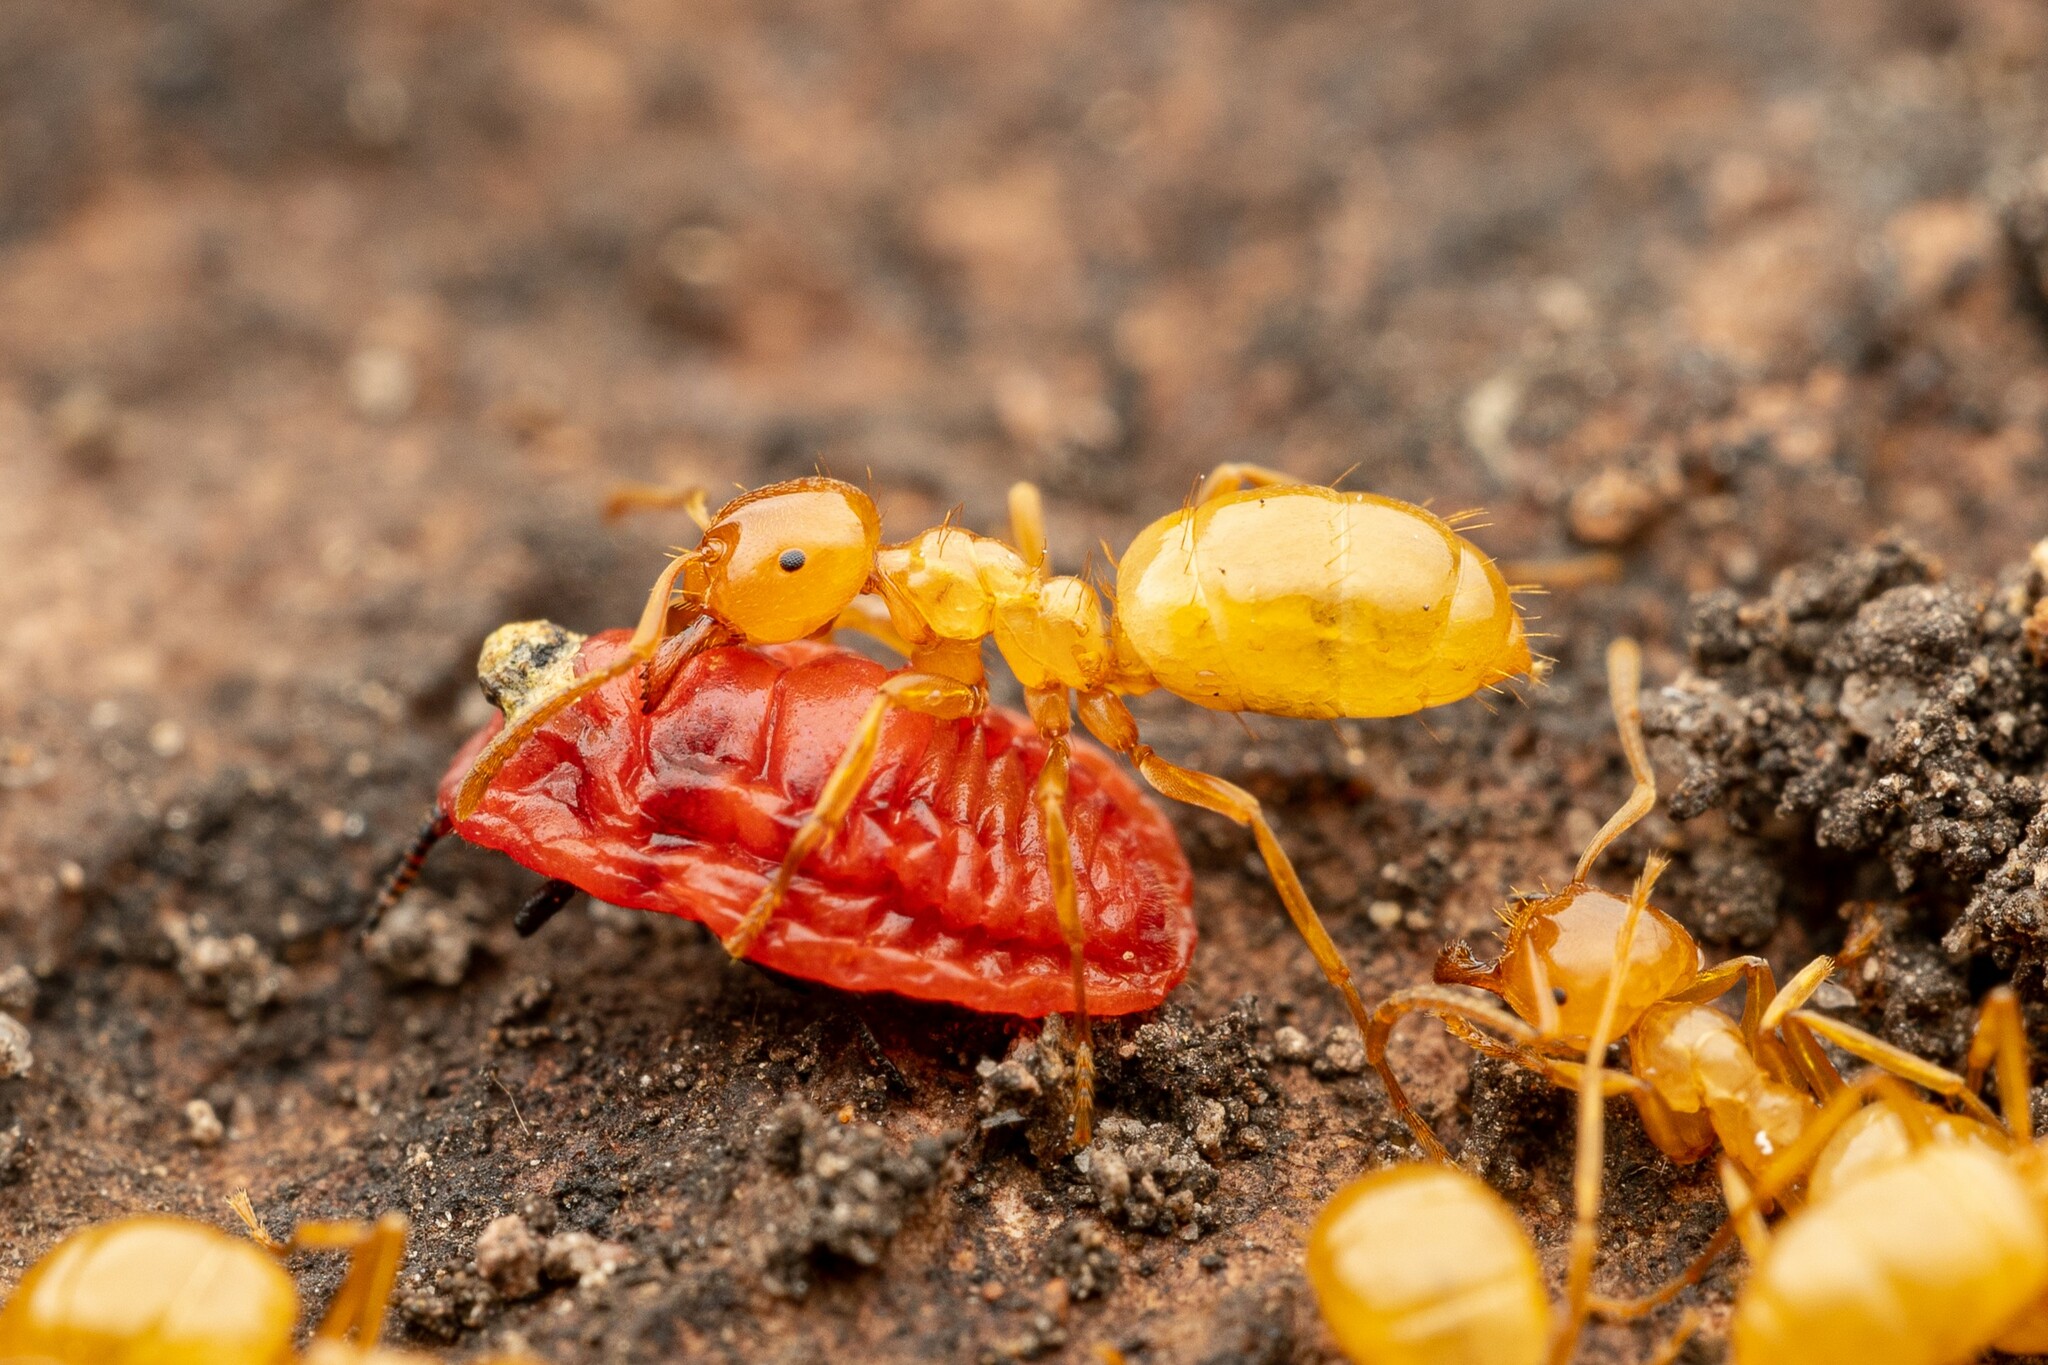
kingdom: Animalia
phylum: Arthropoda
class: Insecta
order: Hymenoptera
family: Formicidae
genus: Lasius
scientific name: Lasius arizonicus
